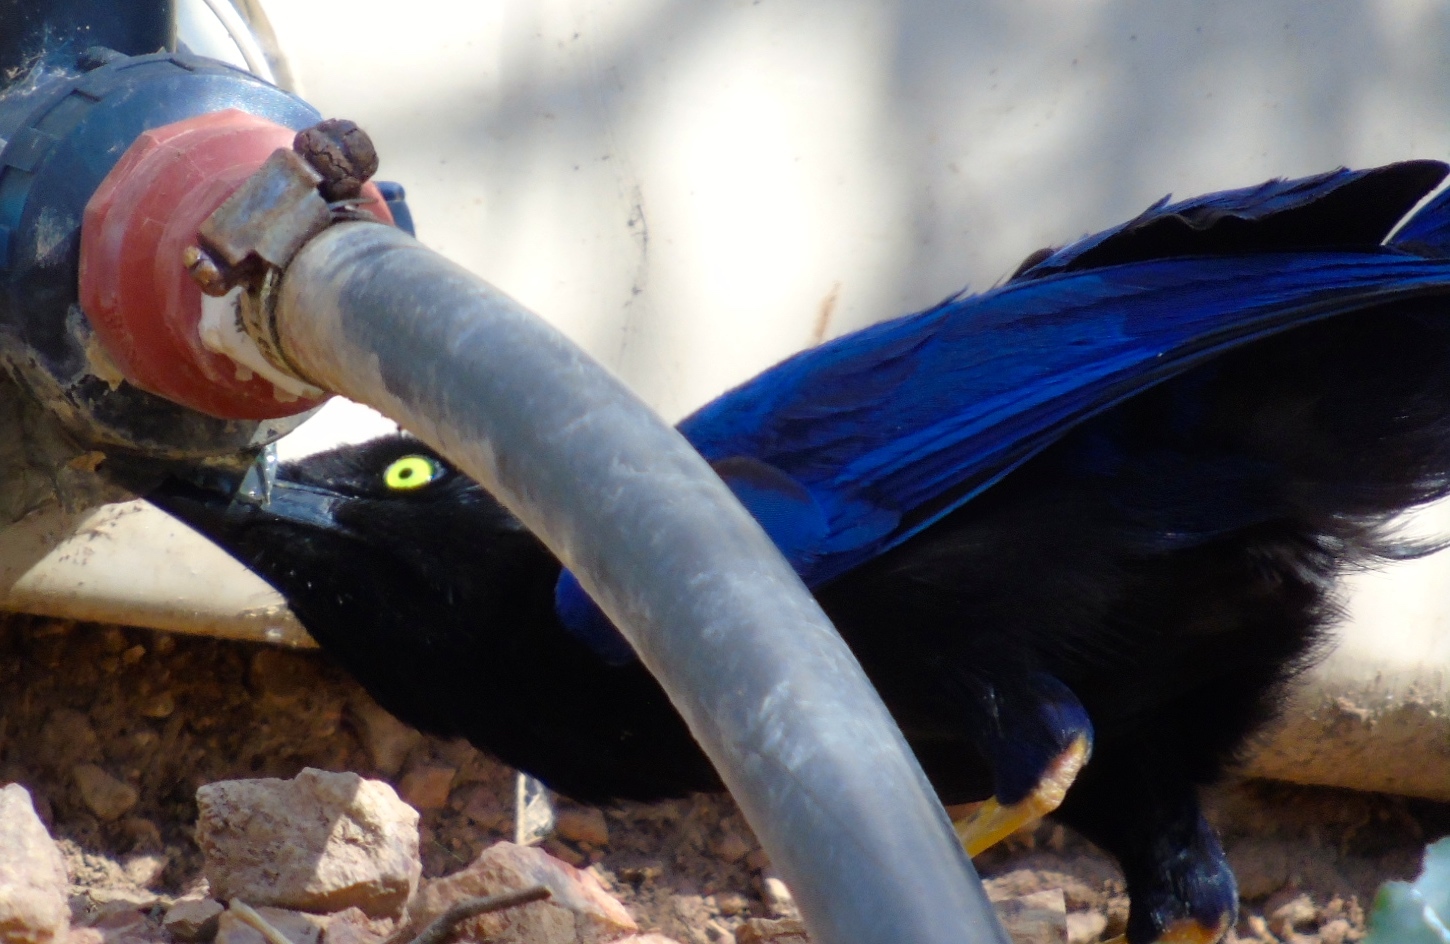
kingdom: Animalia
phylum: Chordata
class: Aves
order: Passeriformes
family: Corvidae
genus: Cyanocorax
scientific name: Cyanocorax beecheii
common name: Purplish-backed jay
